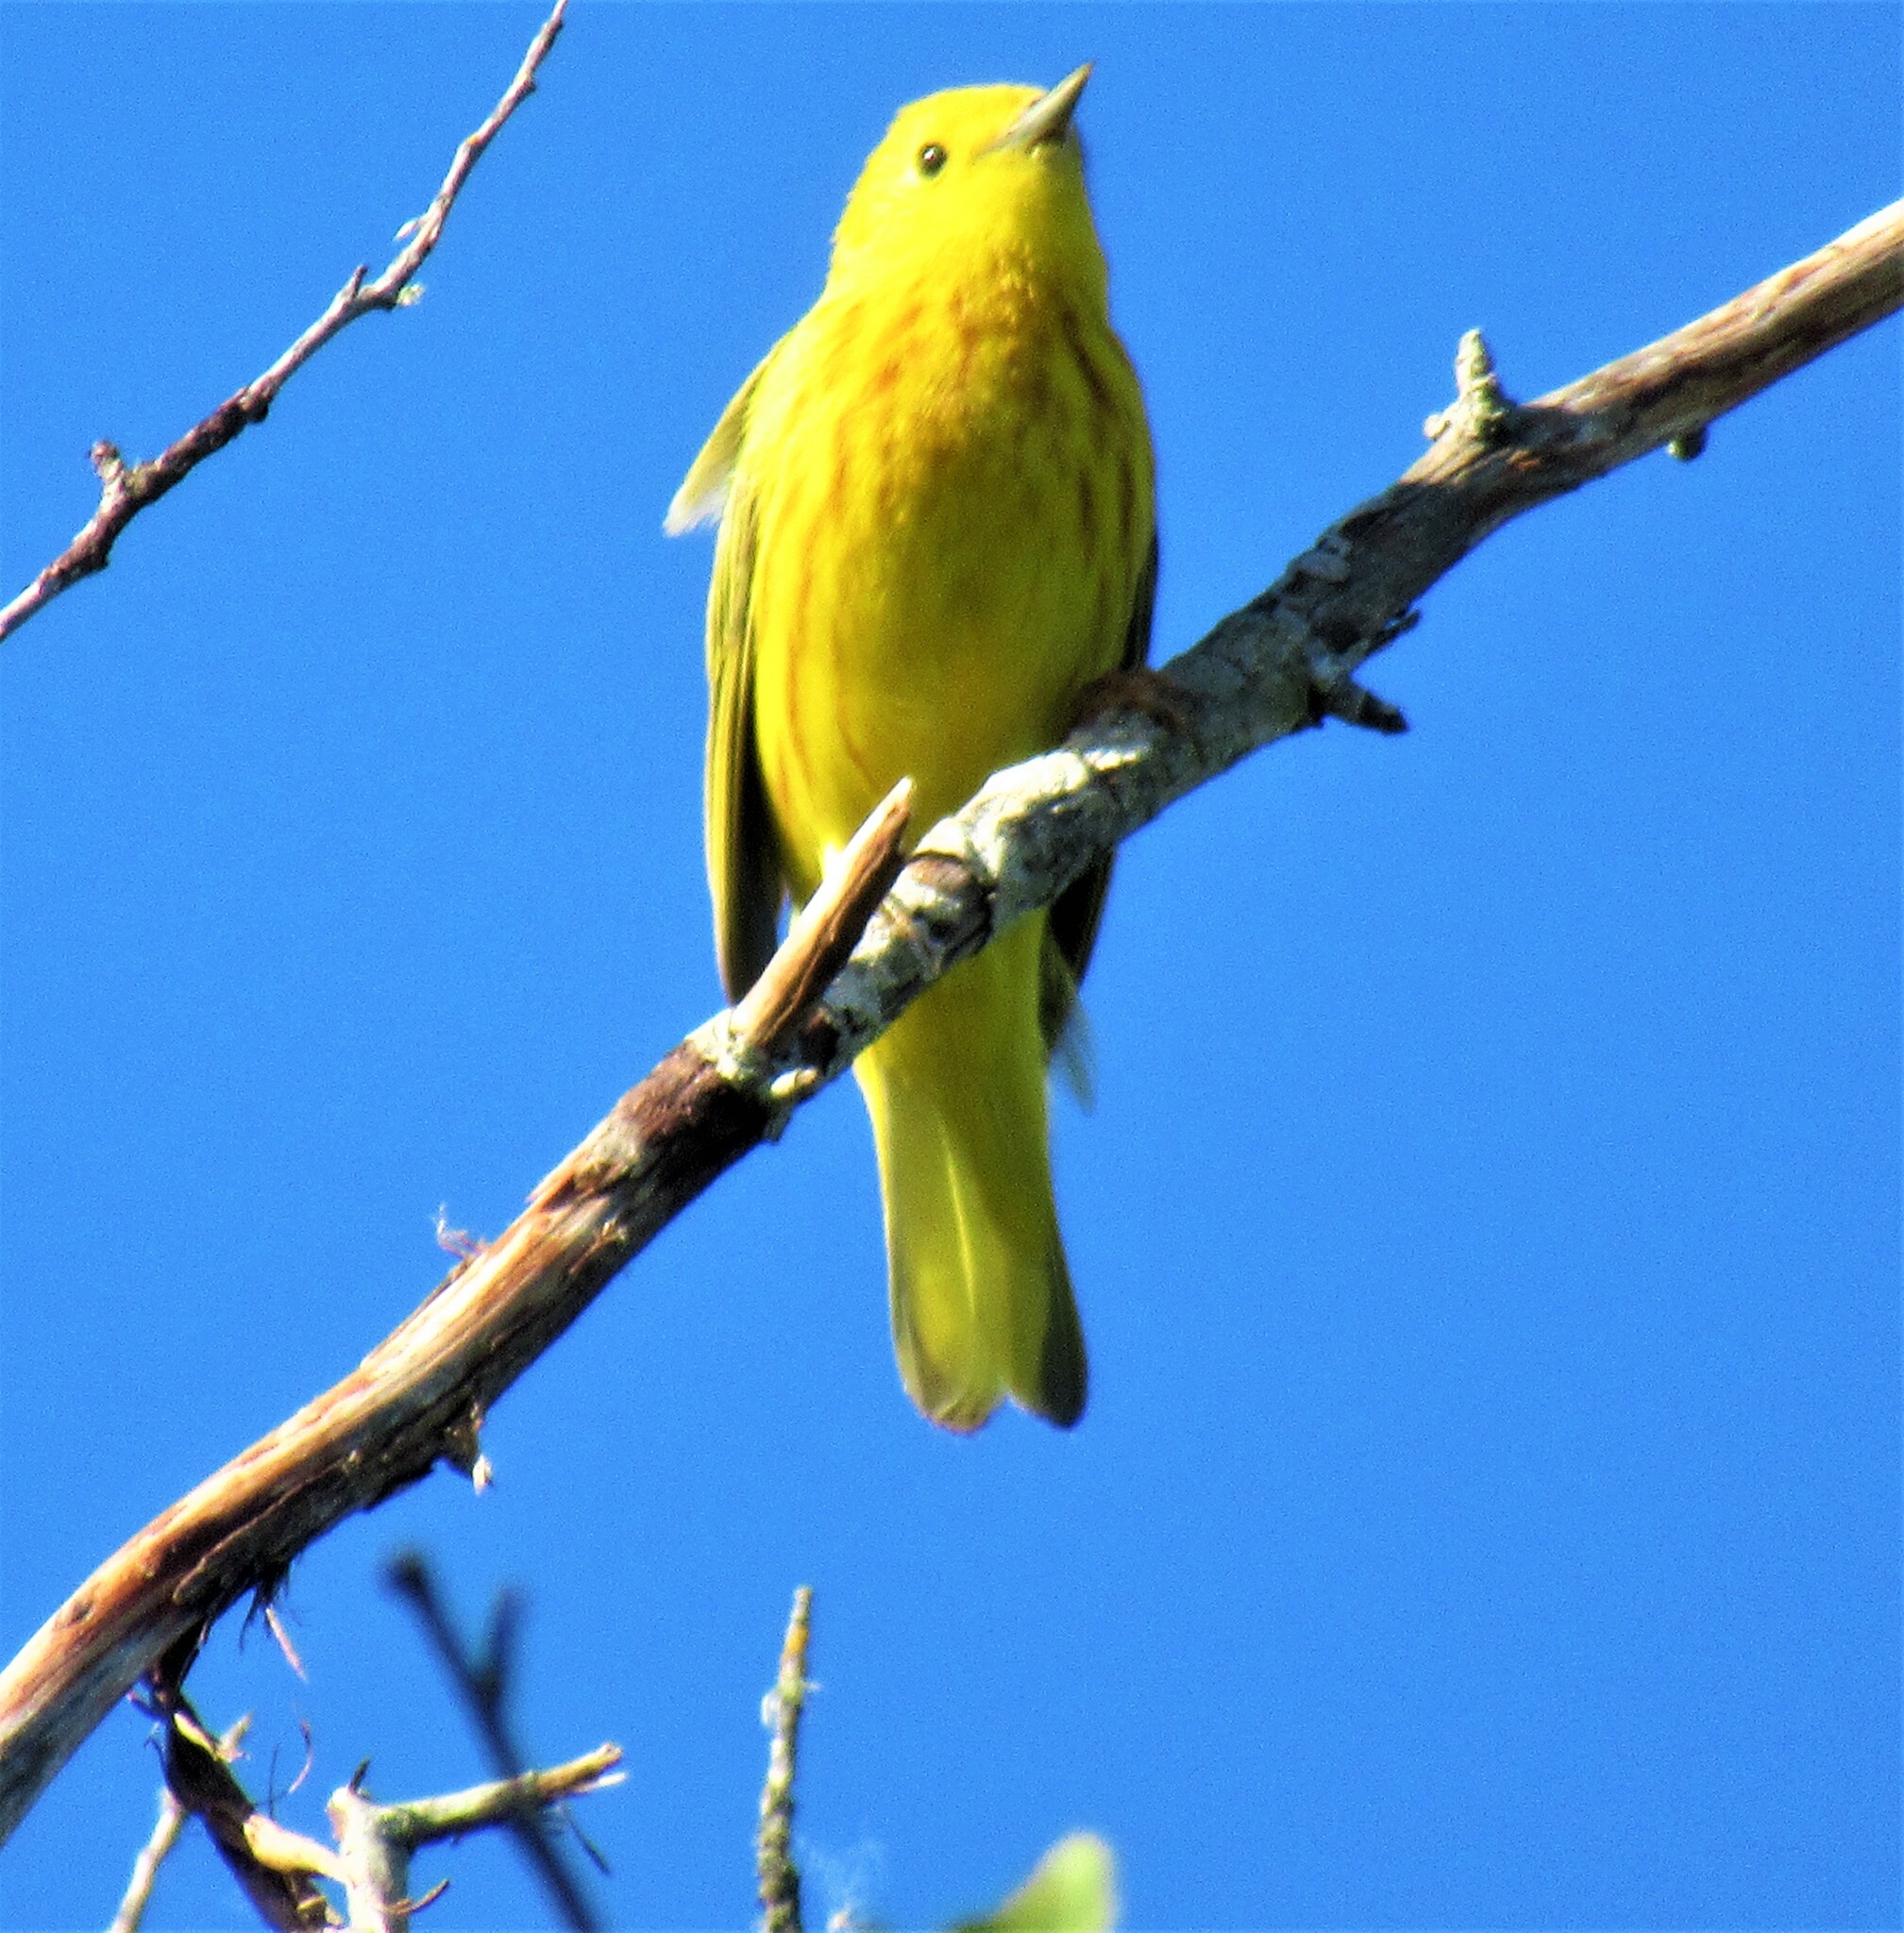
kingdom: Animalia
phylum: Chordata
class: Aves
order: Passeriformes
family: Parulidae
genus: Setophaga
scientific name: Setophaga petechia
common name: Yellow warbler
